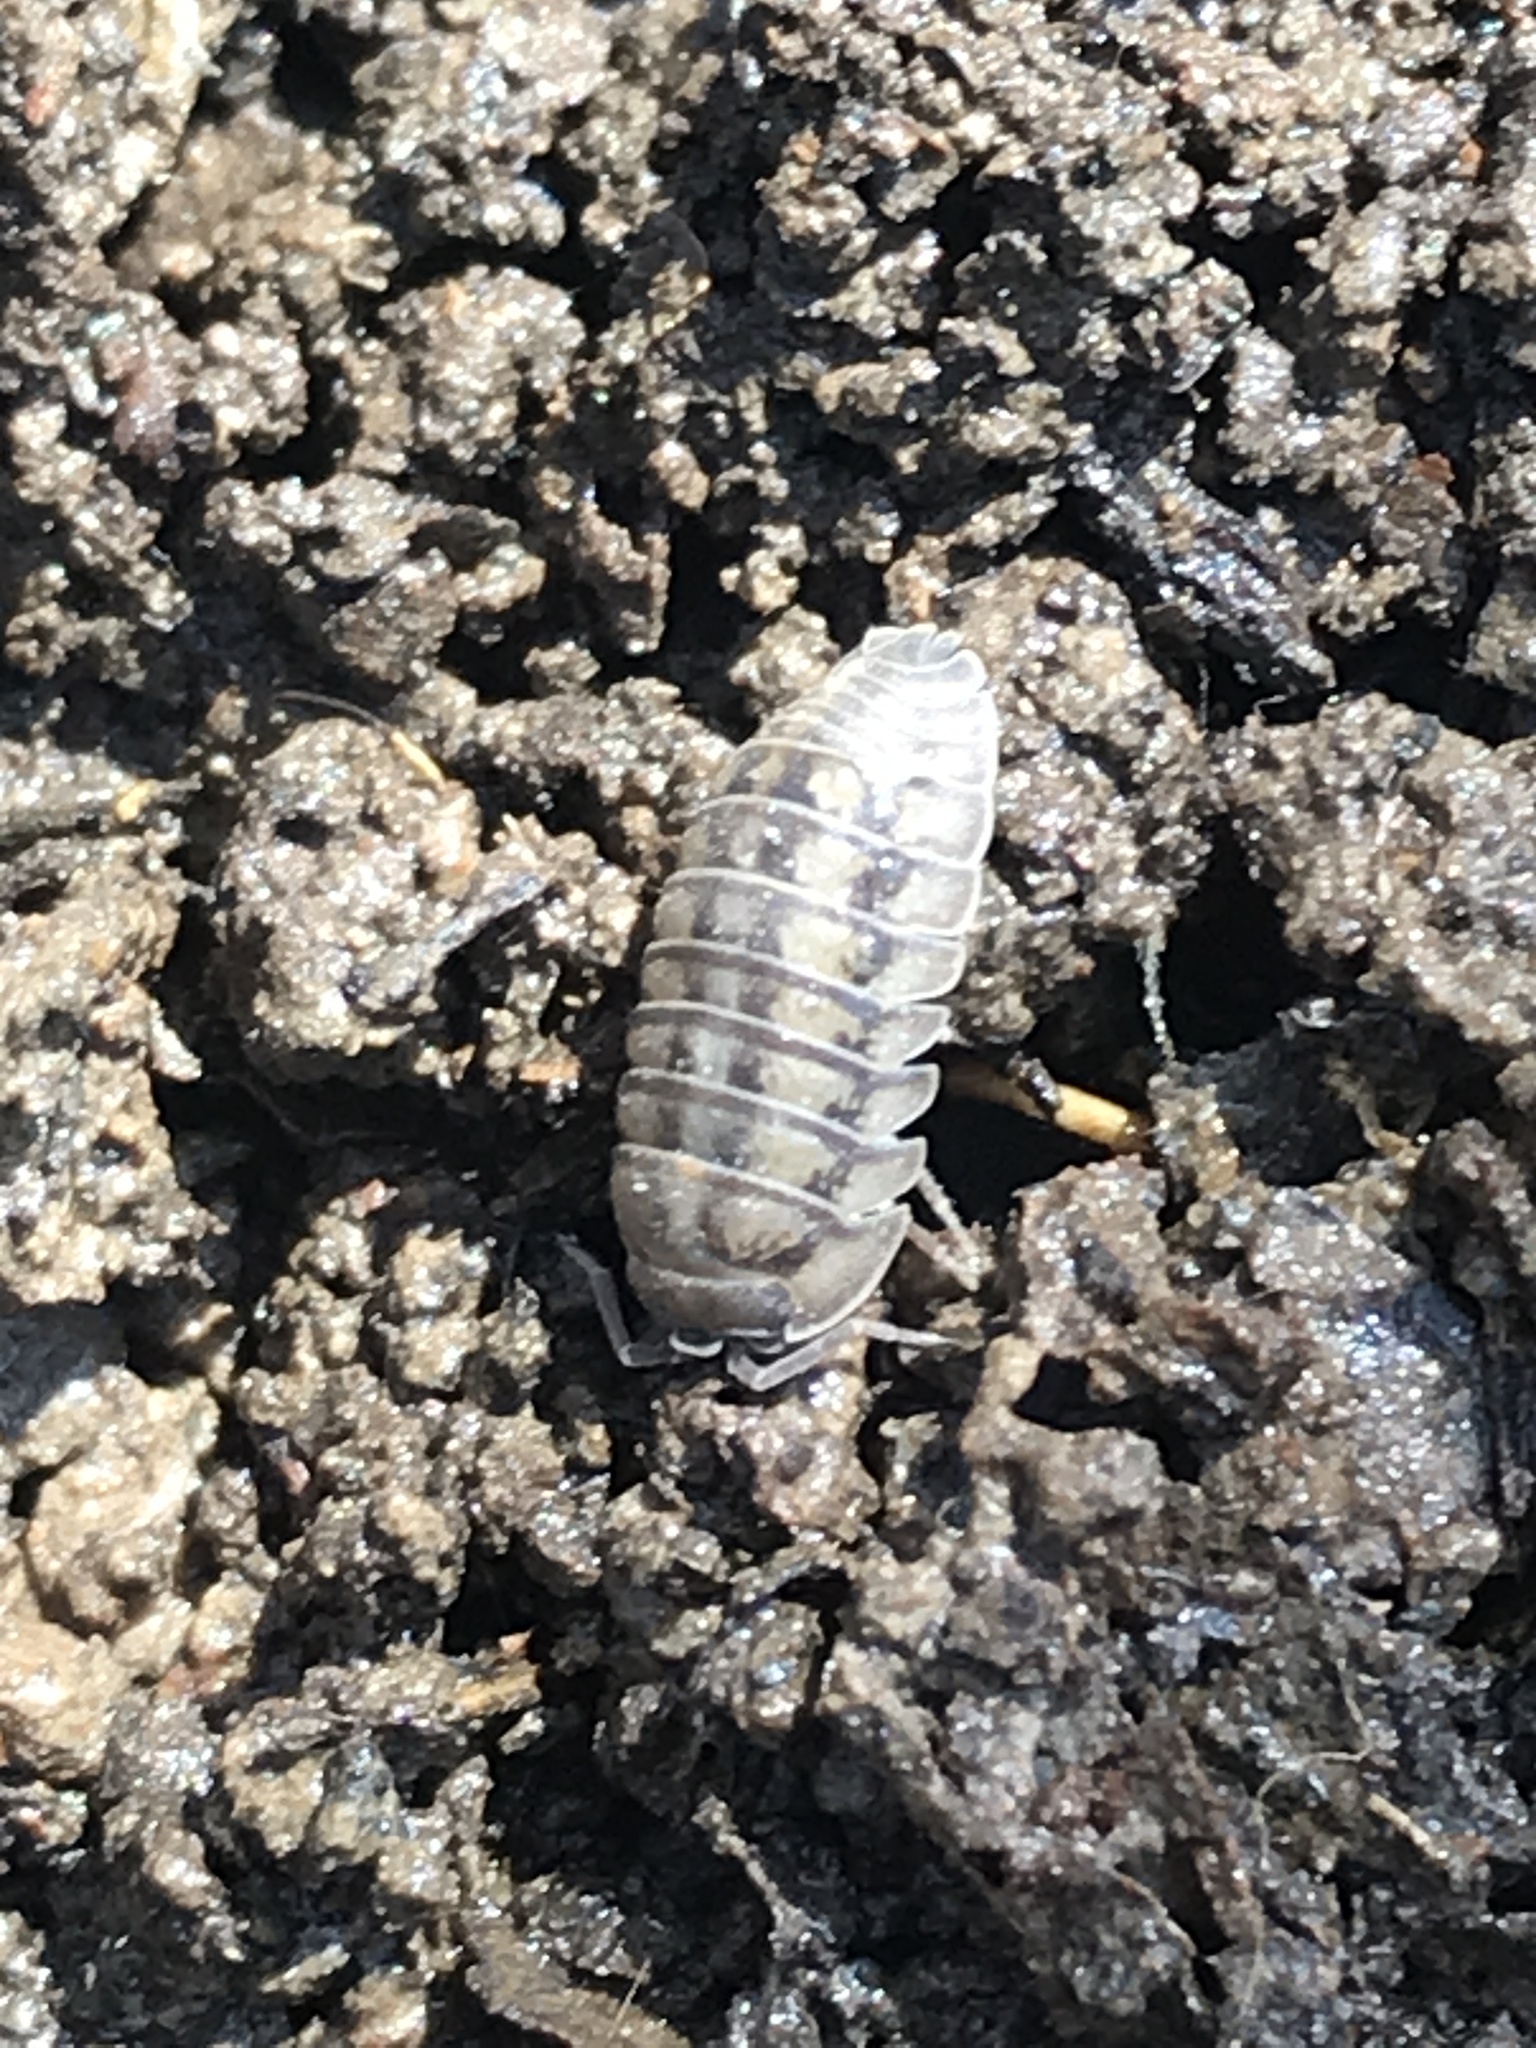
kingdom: Animalia
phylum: Arthropoda
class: Malacostraca
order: Isopoda
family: Armadillidiidae
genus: Armadillidium
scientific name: Armadillidium nasatum
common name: Isopod
